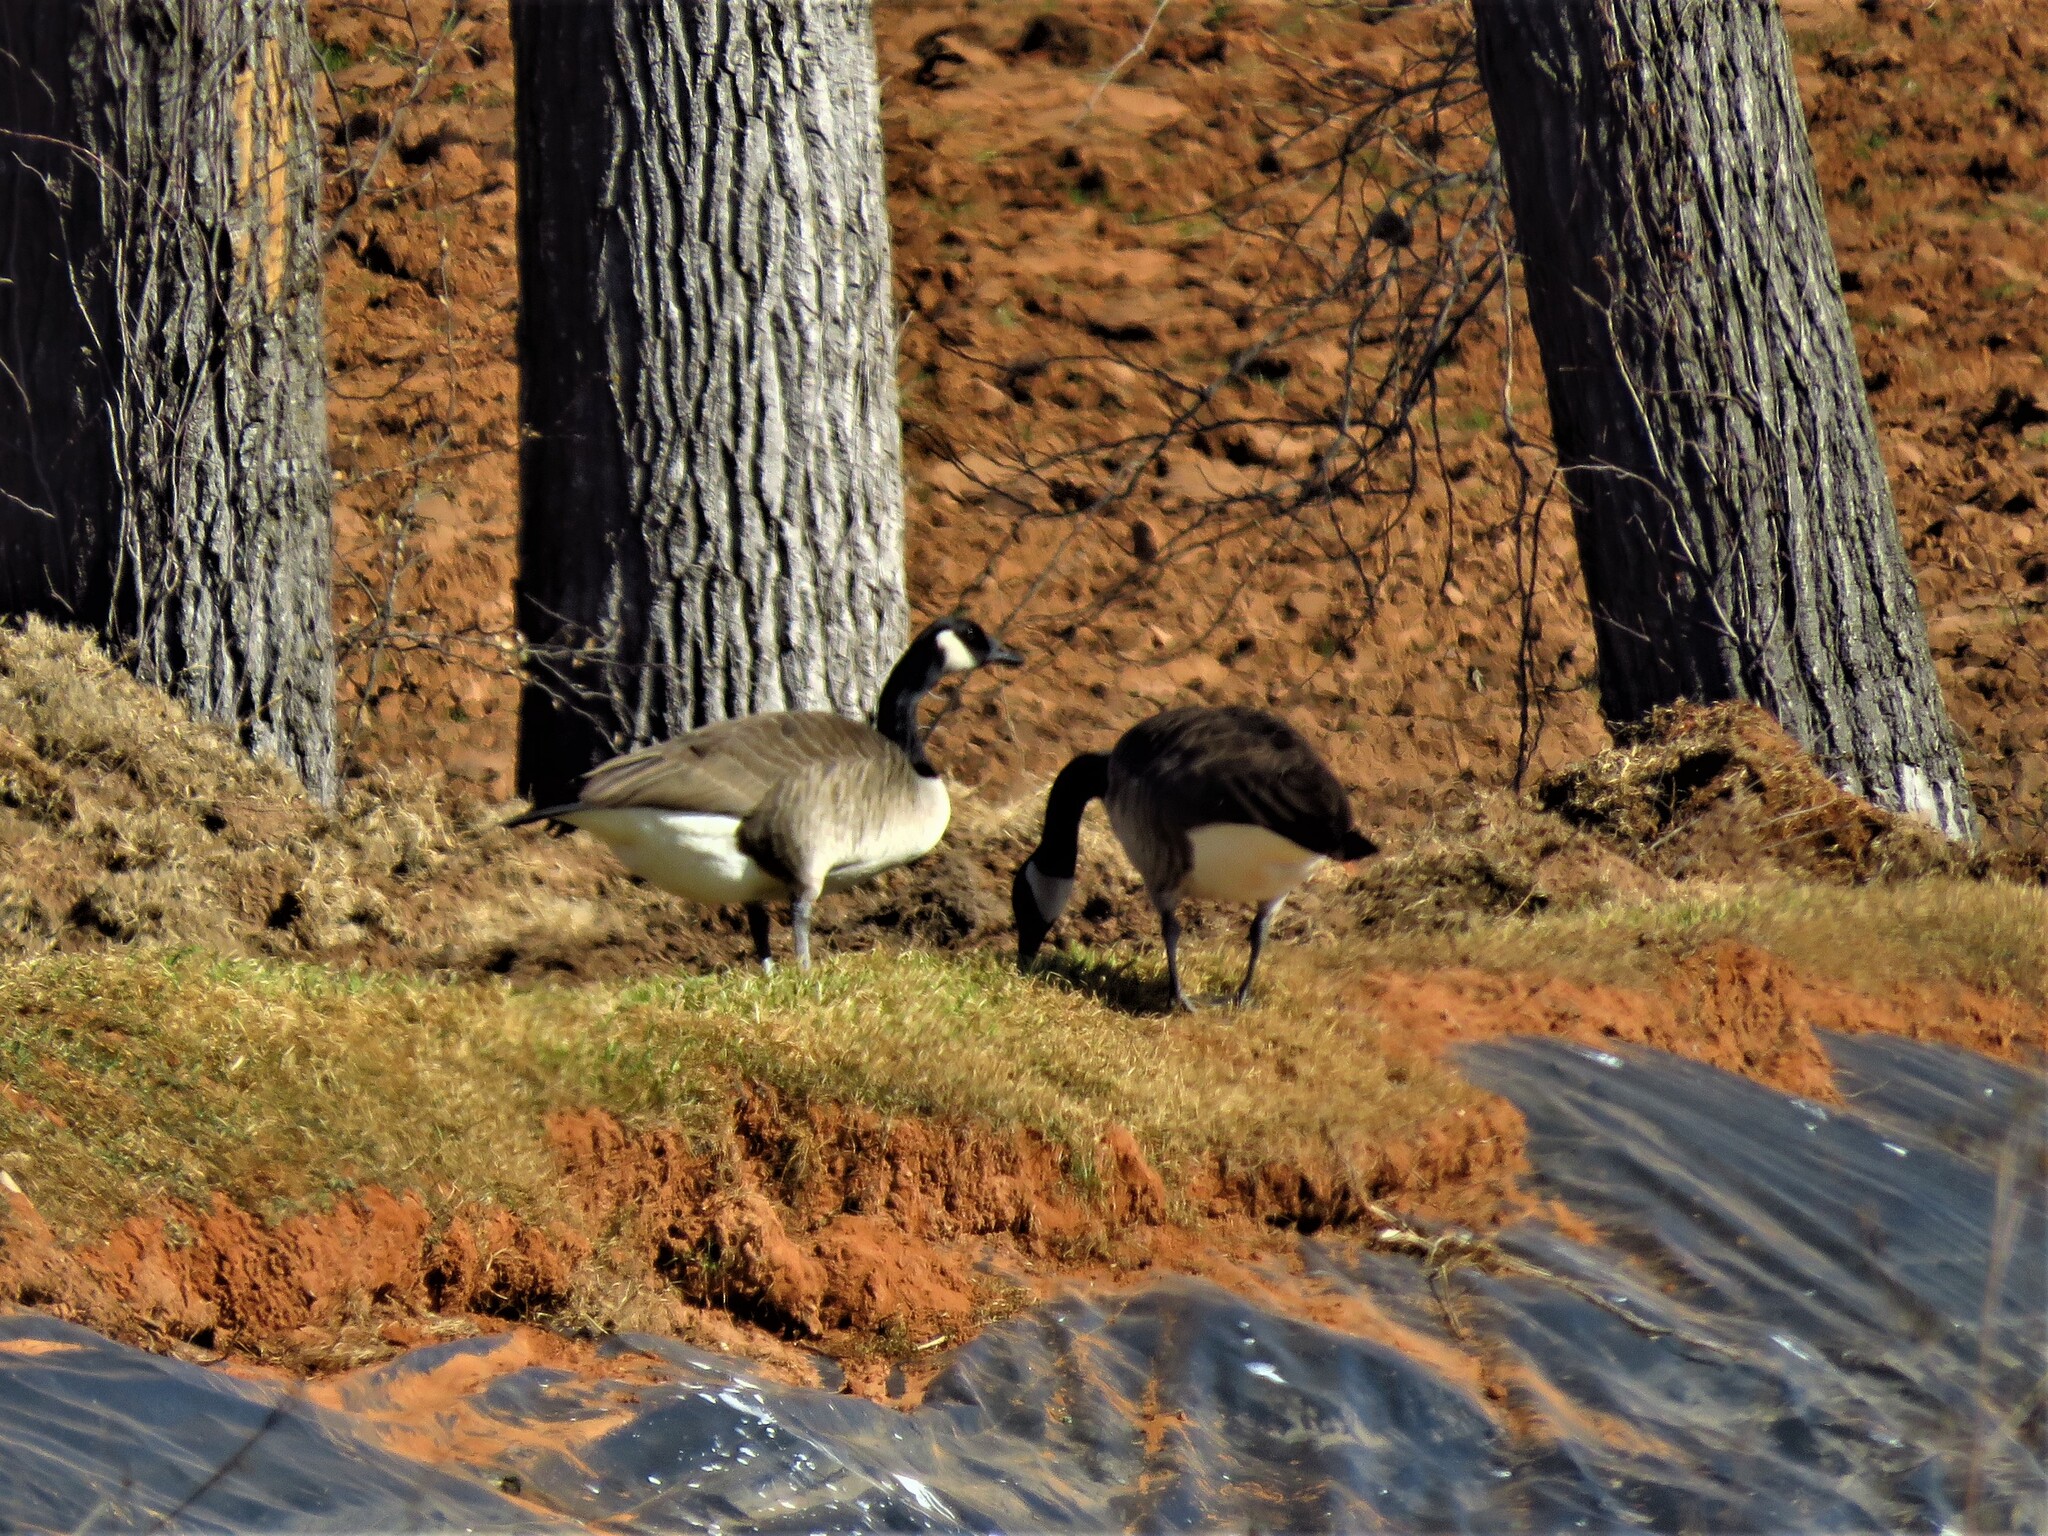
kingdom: Animalia
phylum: Chordata
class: Aves
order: Anseriformes
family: Anatidae
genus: Branta
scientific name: Branta canadensis
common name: Canada goose
